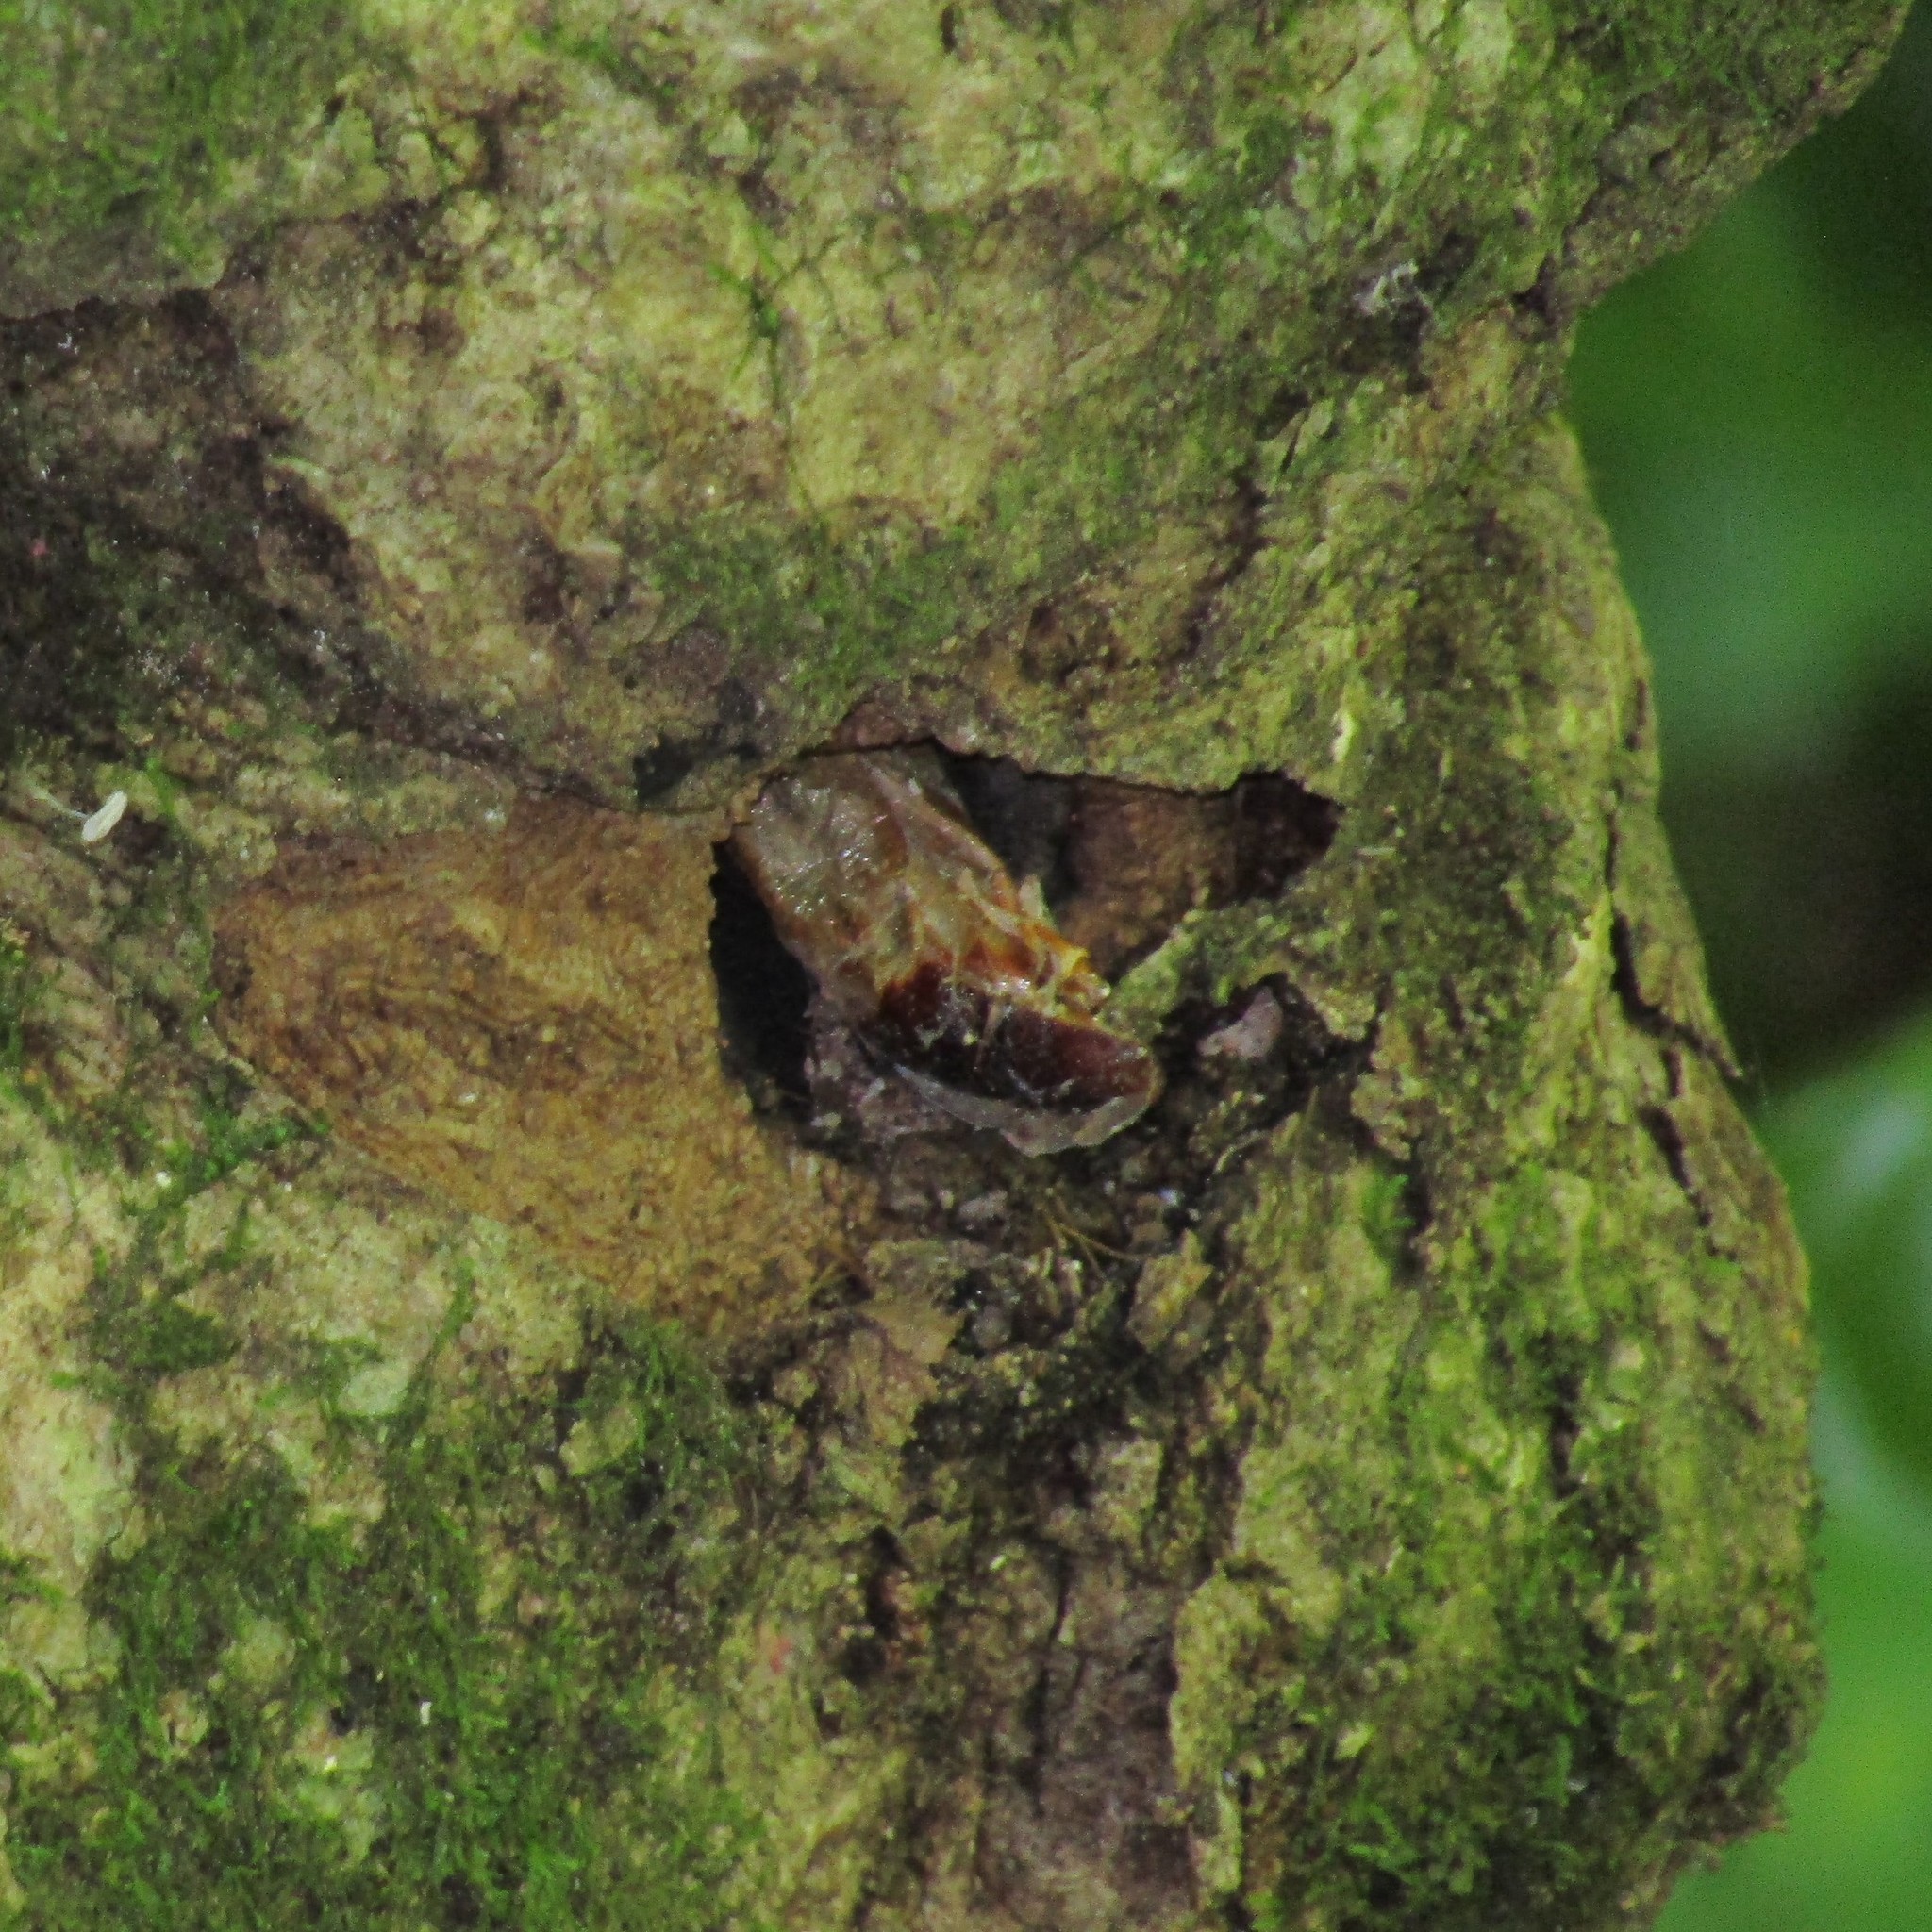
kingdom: Animalia
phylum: Arthropoda
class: Insecta
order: Lepidoptera
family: Hepialidae
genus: Aenetus
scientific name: Aenetus virescens
